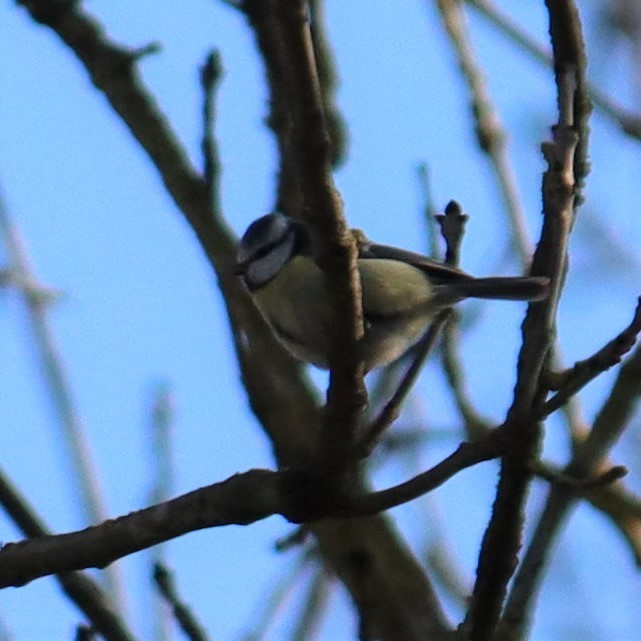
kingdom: Animalia
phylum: Chordata
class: Aves
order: Passeriformes
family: Paridae
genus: Cyanistes
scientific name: Cyanistes caeruleus
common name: Eurasian blue tit
